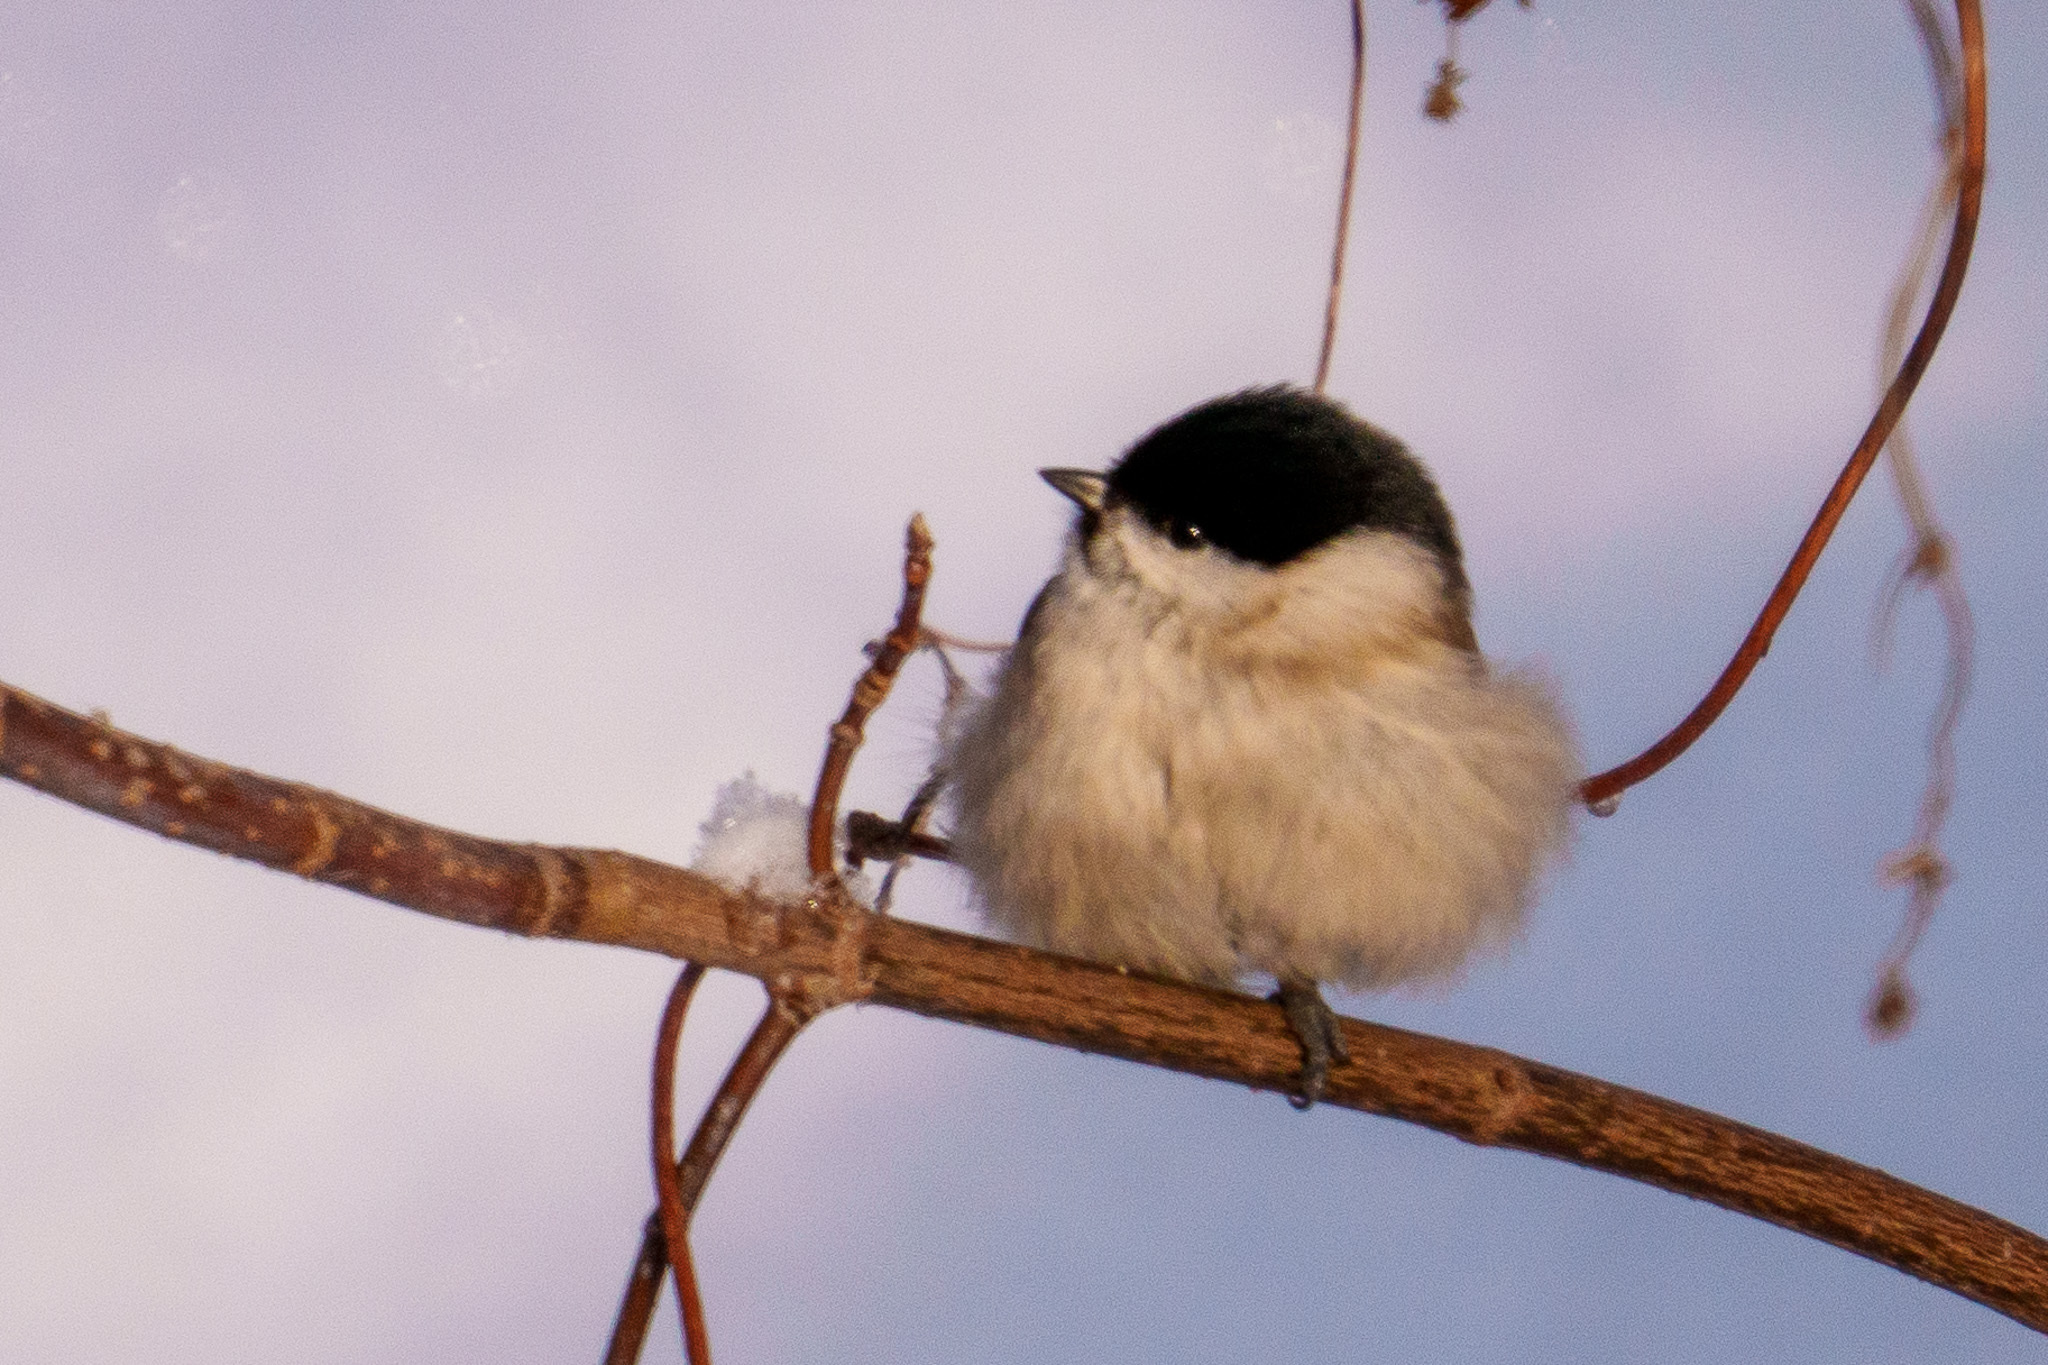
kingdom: Animalia
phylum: Chordata
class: Aves
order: Passeriformes
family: Paridae
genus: Poecile
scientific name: Poecile palustris
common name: Marsh tit
